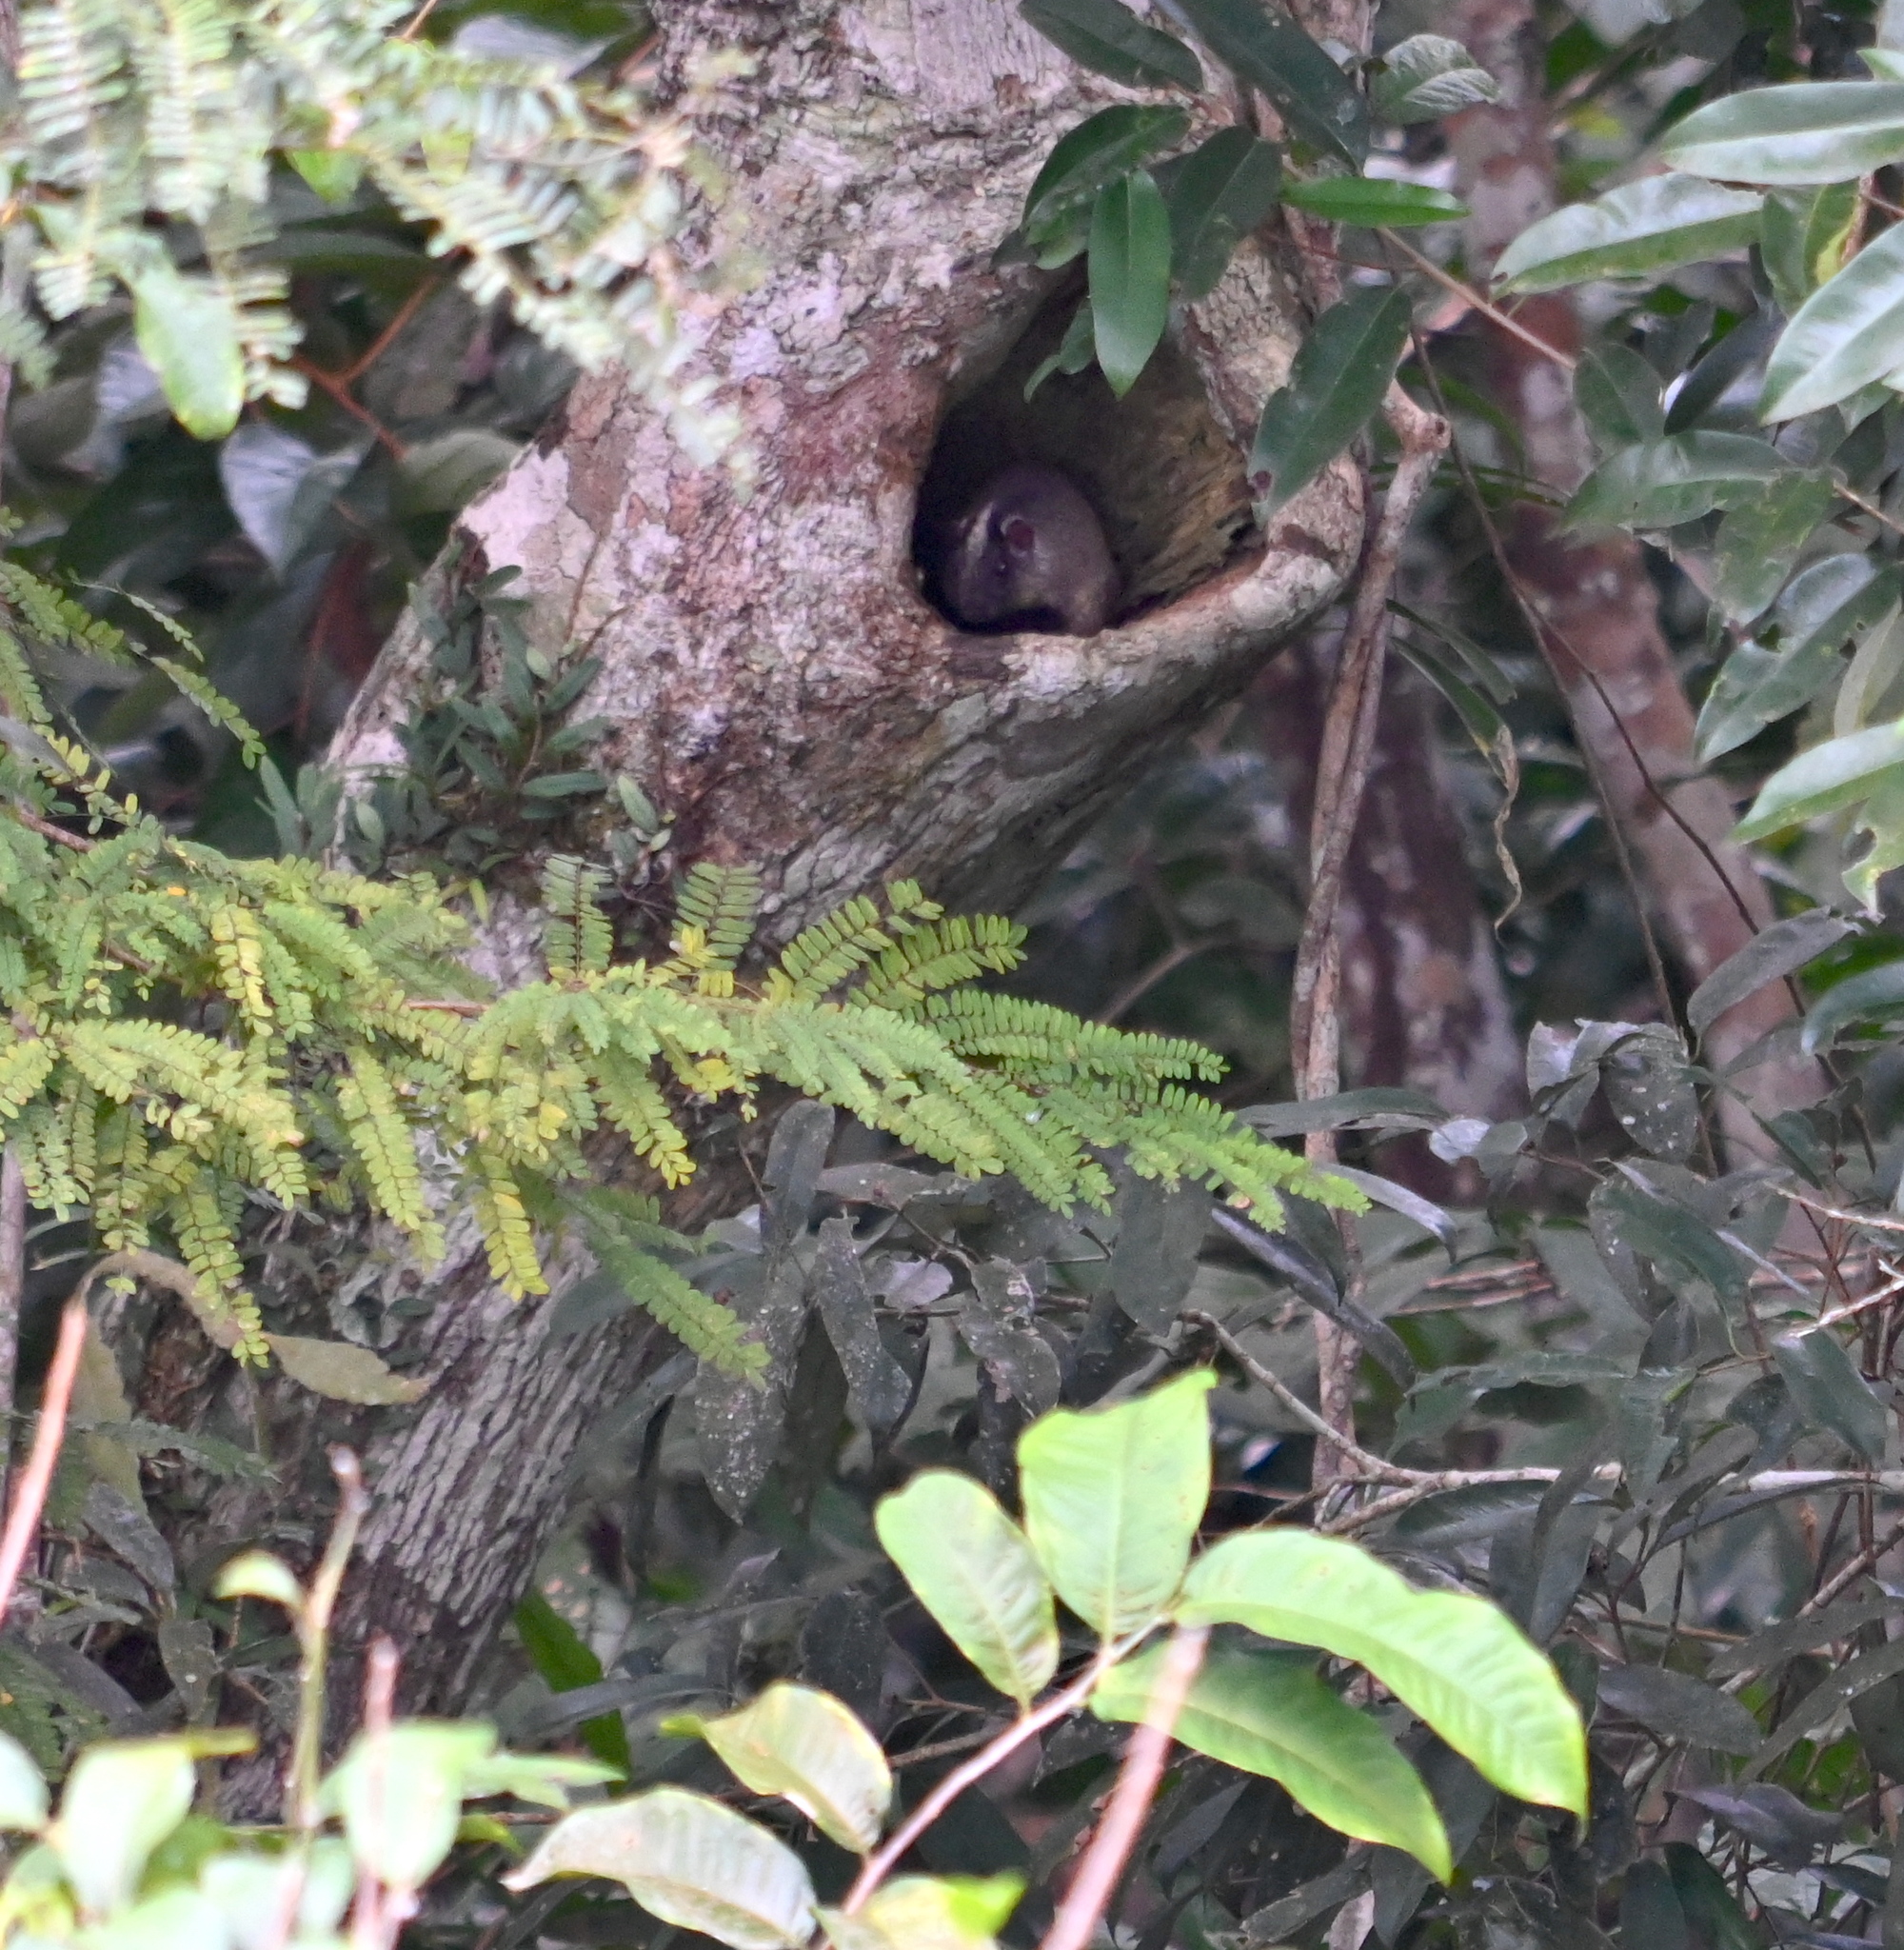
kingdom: Animalia
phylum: Chordata
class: Mammalia
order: Rodentia
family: Echimyidae
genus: Isothrix
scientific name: Isothrix bistriata
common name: Yellow-crowned brush-tailed rat
